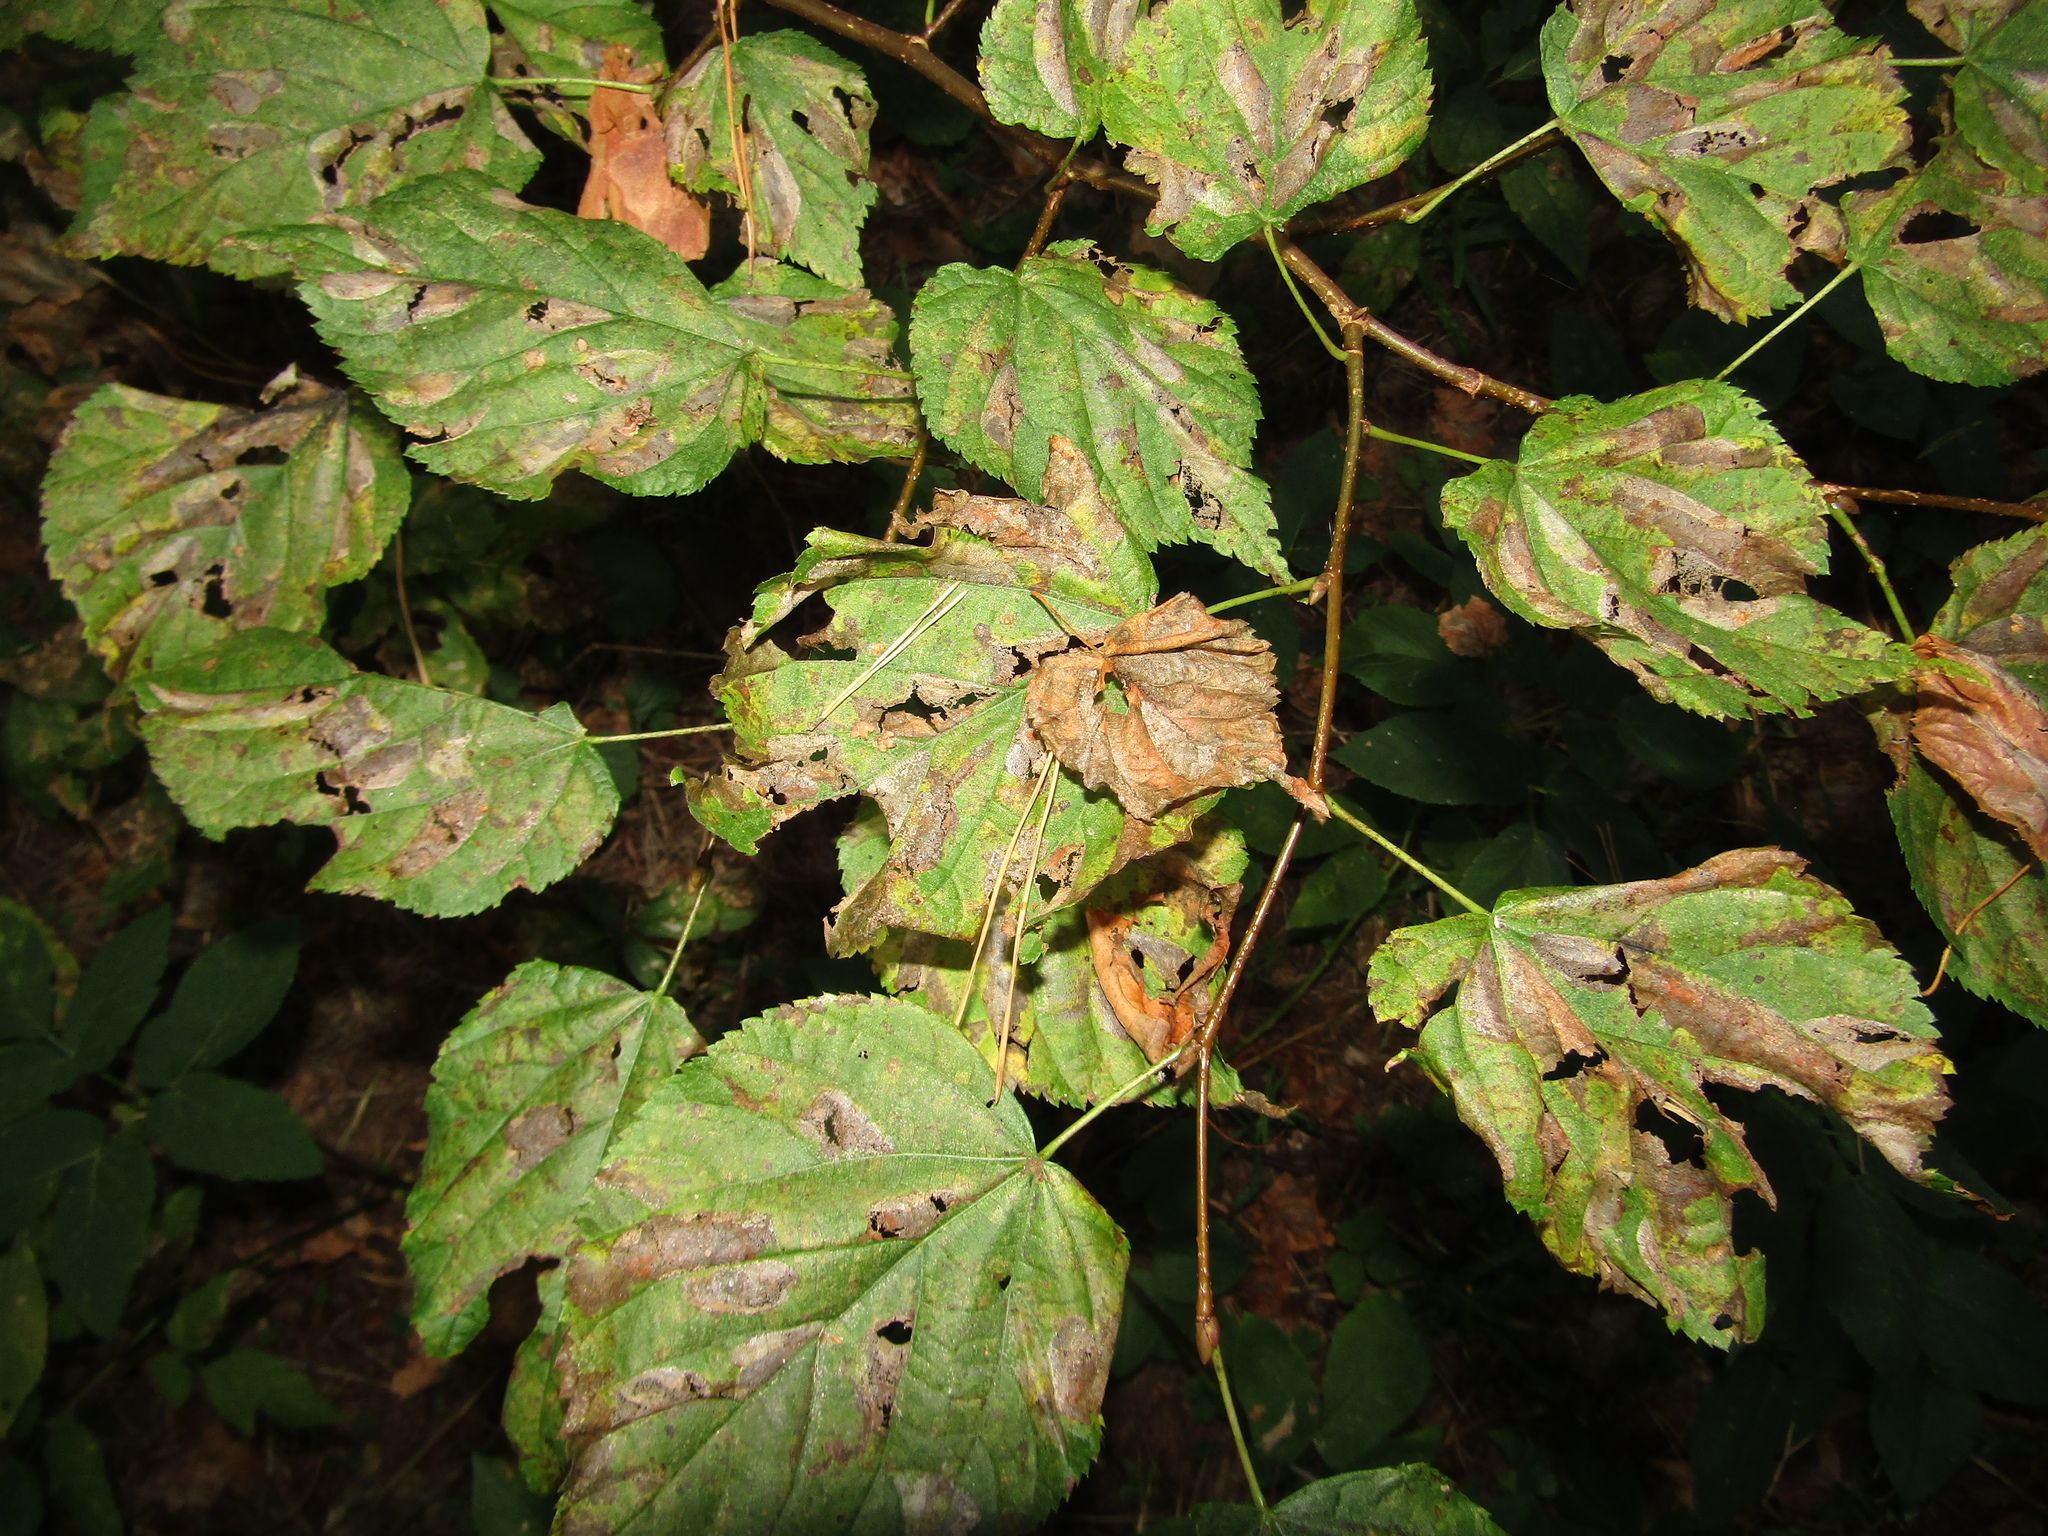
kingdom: Plantae
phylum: Tracheophyta
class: Magnoliopsida
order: Malvales
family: Malvaceae
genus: Tilia
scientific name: Tilia cordata
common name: Small-leaved lime
